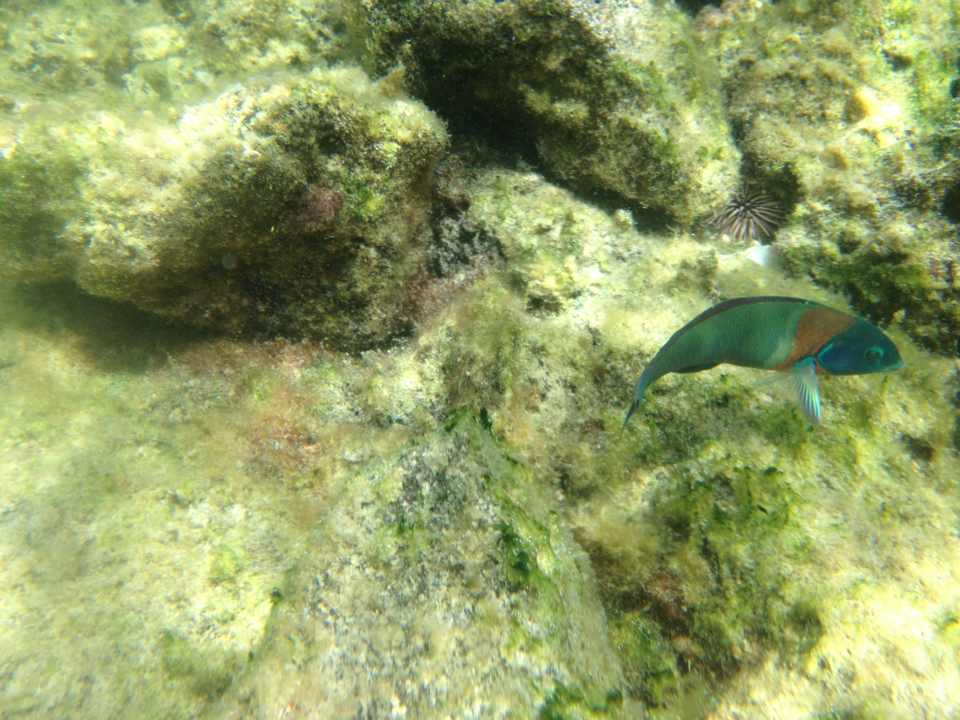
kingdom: Animalia
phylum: Chordata
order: Perciformes
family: Labridae
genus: Thalassoma
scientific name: Thalassoma duperrey
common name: Saddle wrasse
